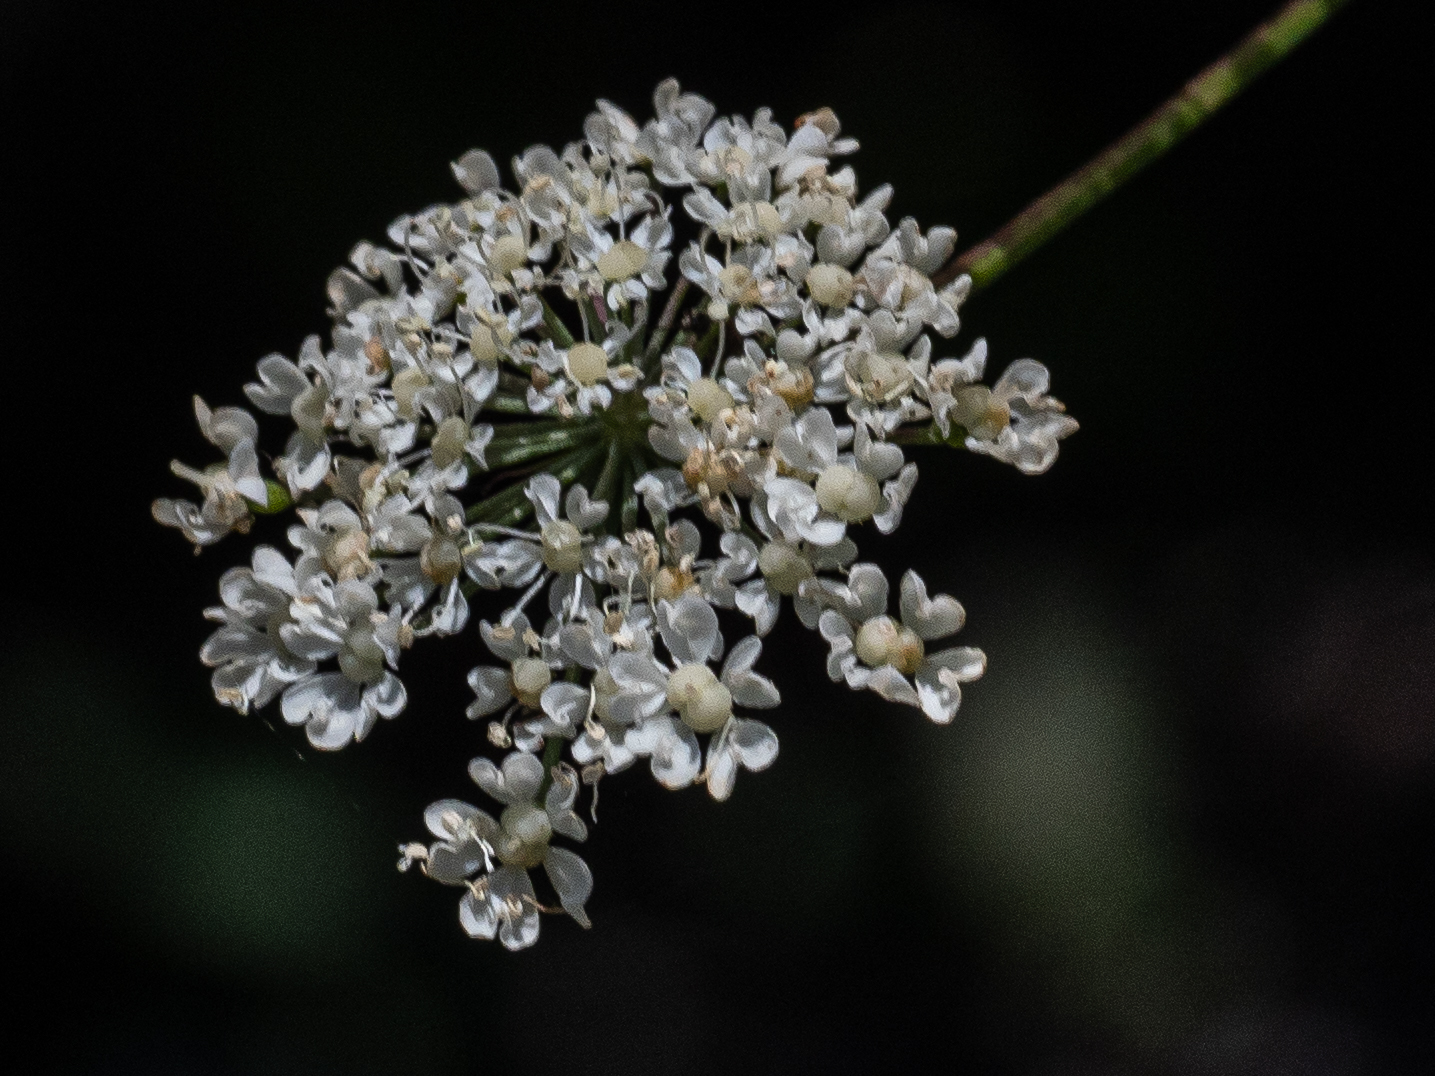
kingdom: Plantae
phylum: Tracheophyta
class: Magnoliopsida
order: Apiales
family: Apiaceae
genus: Laserpitium
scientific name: Laserpitium latifolium
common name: Broadleaf sermountain
